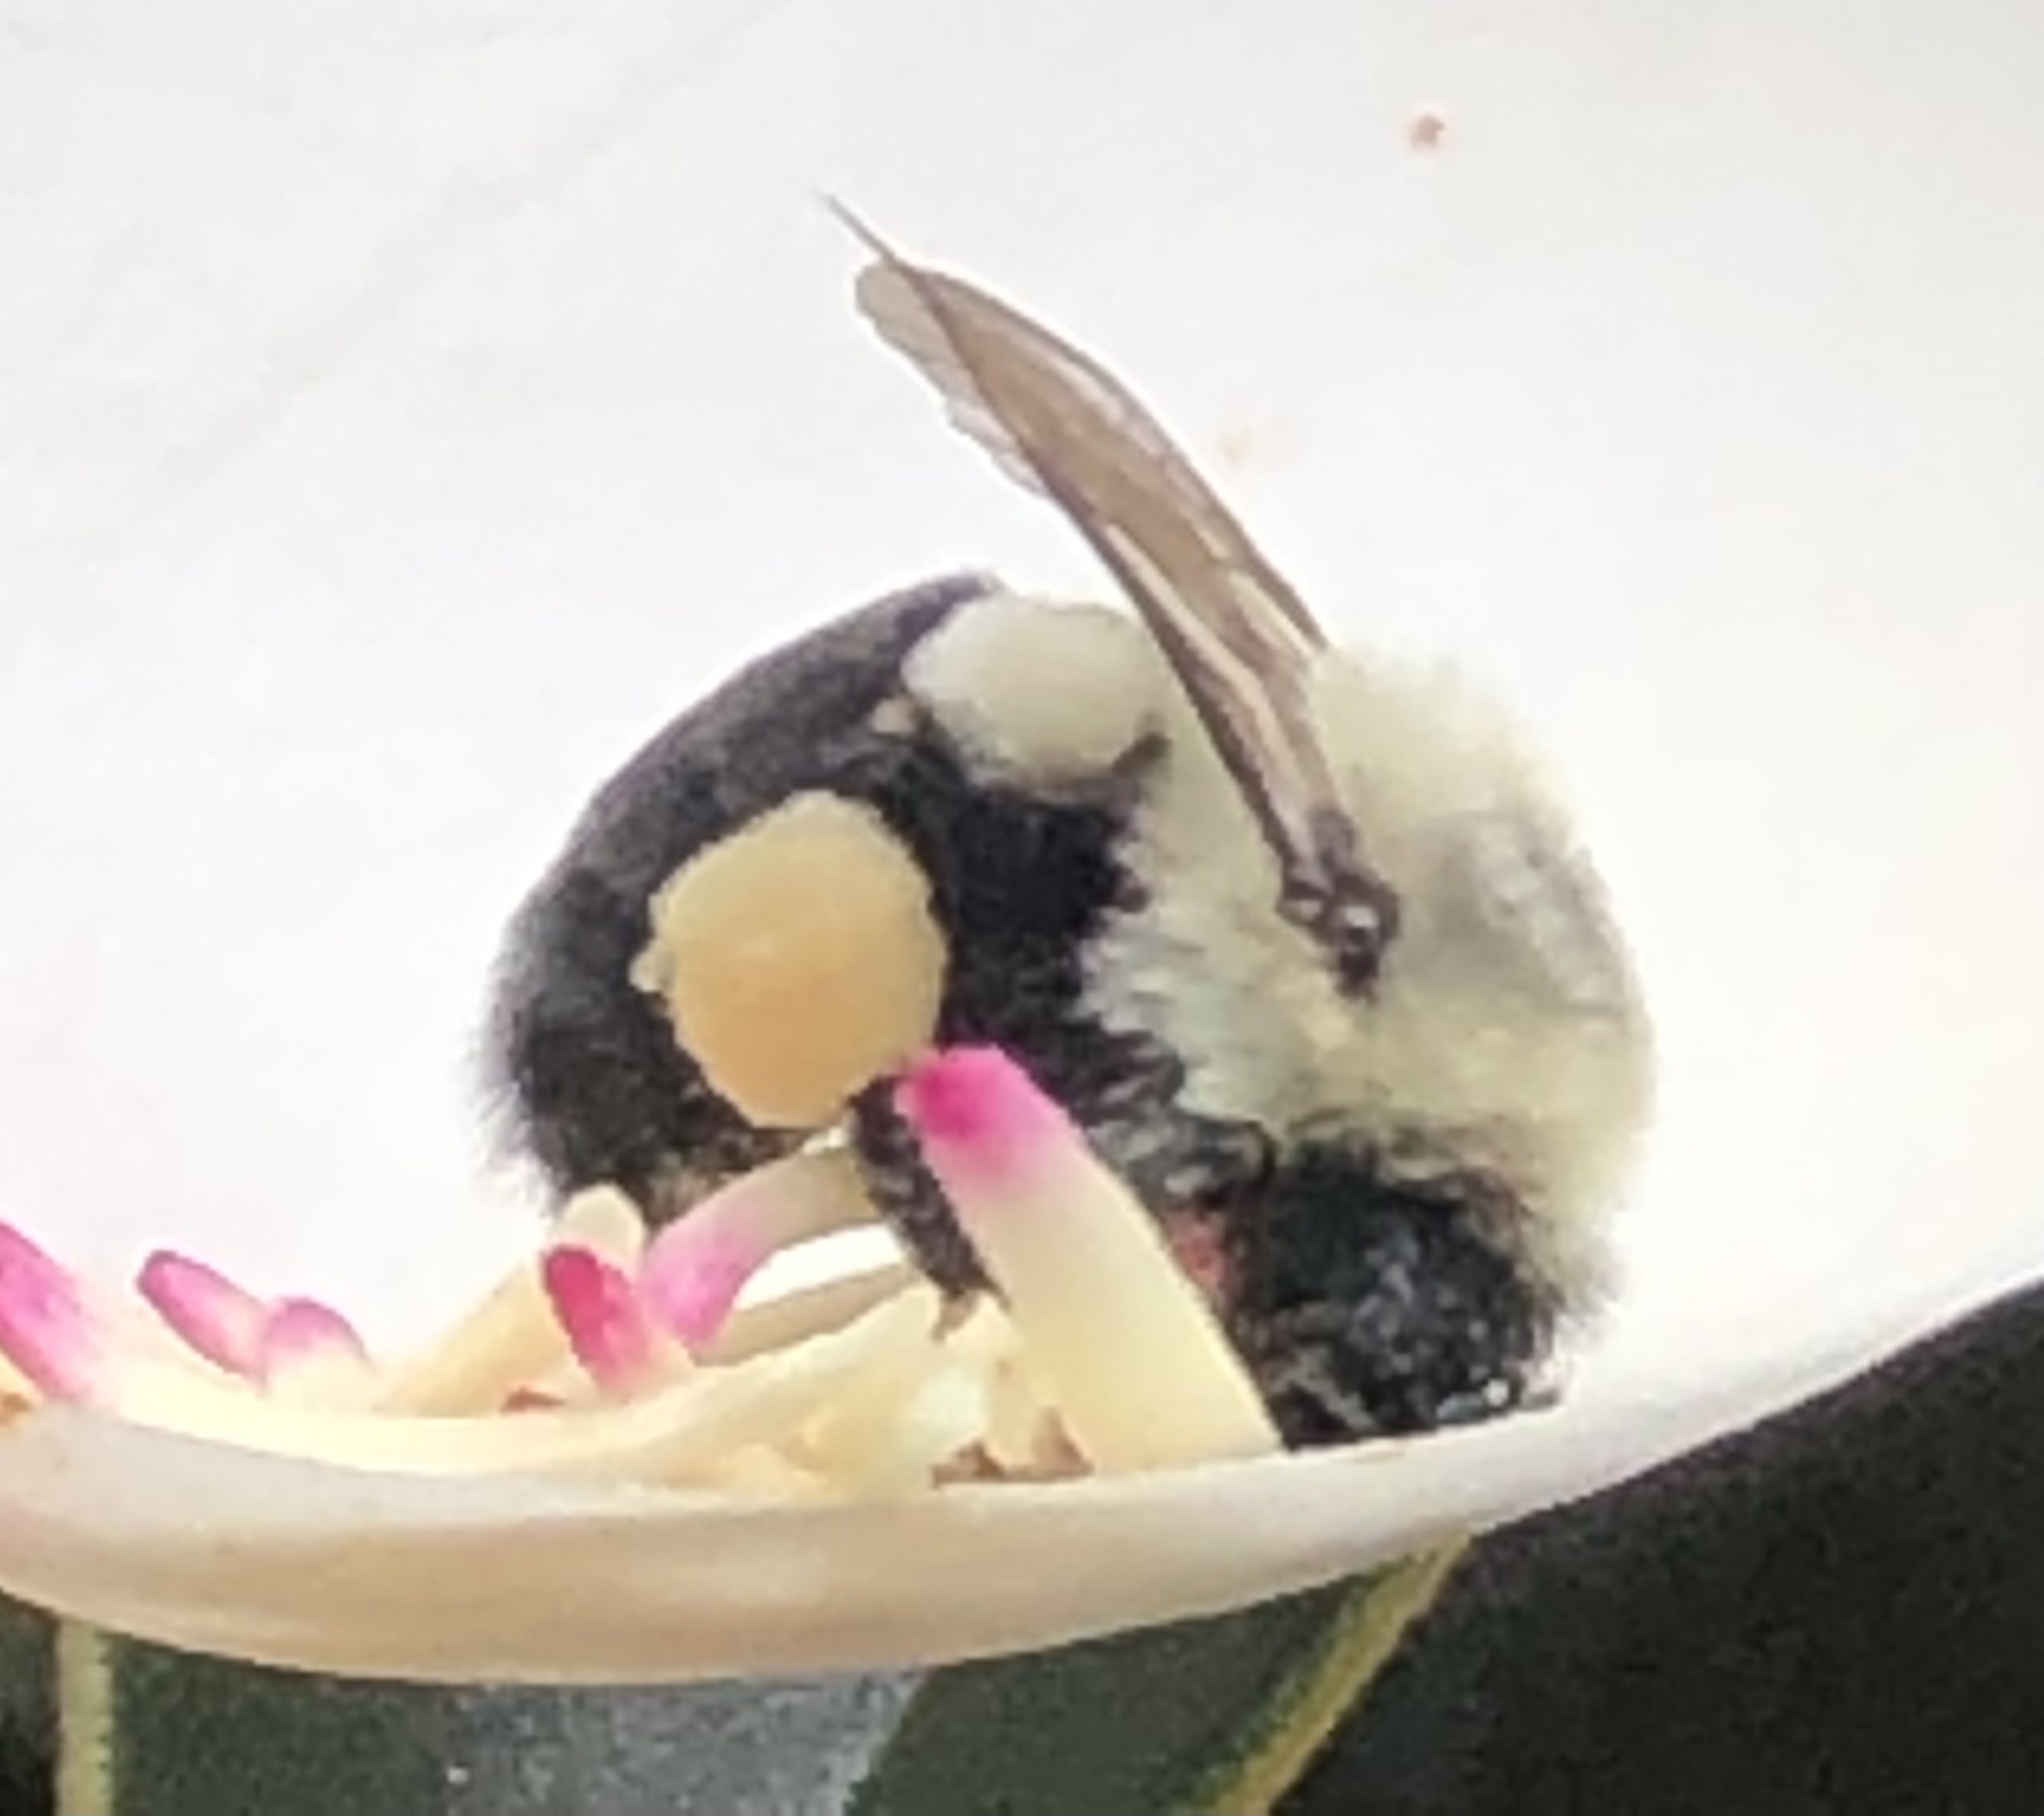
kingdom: Animalia
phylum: Arthropoda
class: Insecta
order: Hymenoptera
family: Apidae
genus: Bombus
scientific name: Bombus impatiens
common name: Common eastern bumble bee
